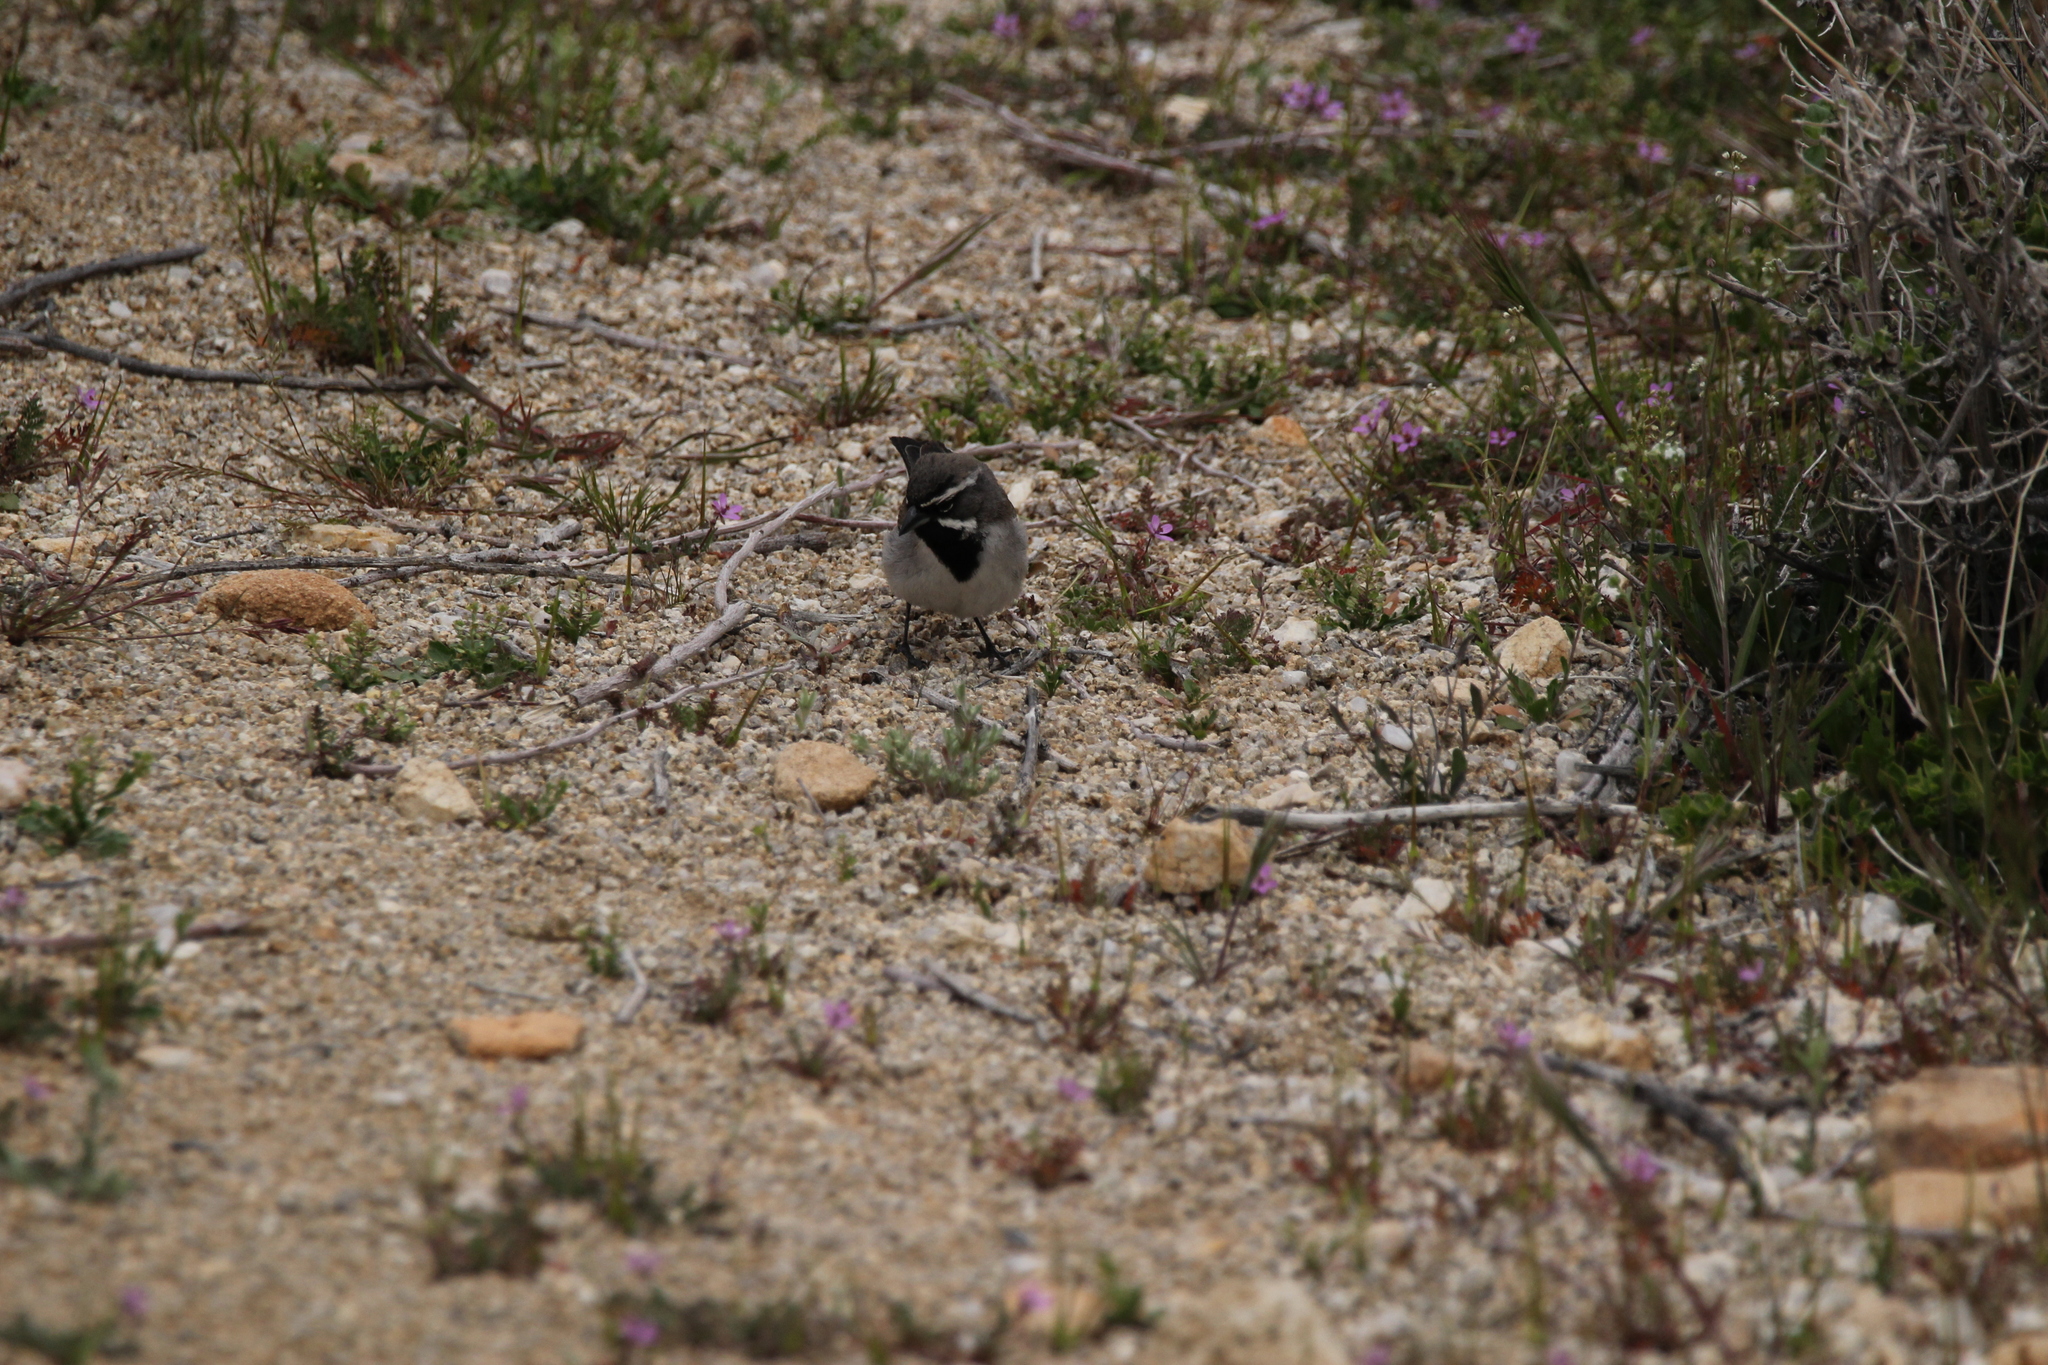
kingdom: Animalia
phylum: Chordata
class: Aves
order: Passeriformes
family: Passerellidae
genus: Amphispiza
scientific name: Amphispiza bilineata
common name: Black-throated sparrow
